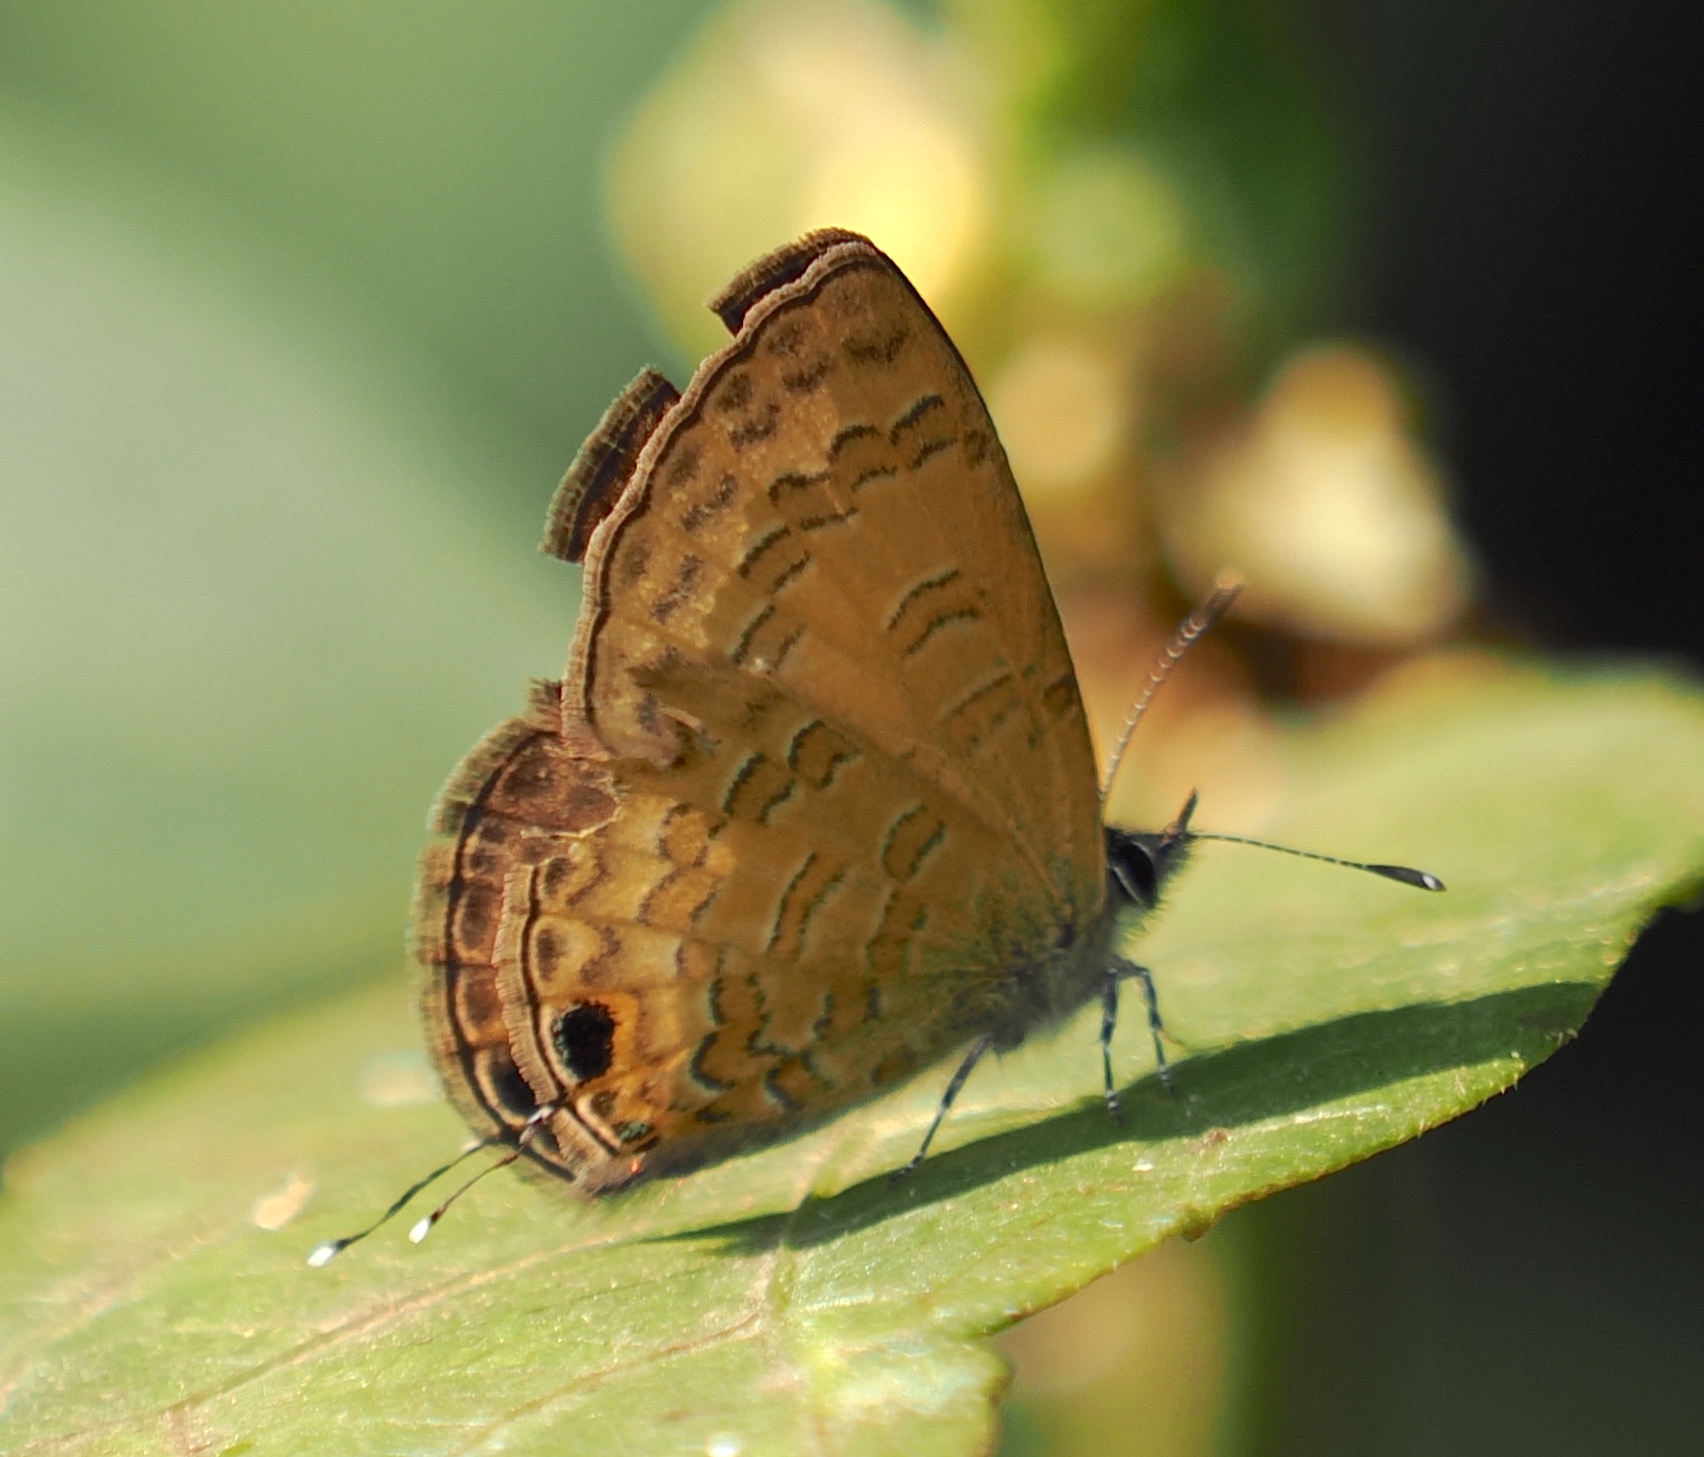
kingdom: Animalia
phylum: Arthropoda
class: Insecta
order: Lepidoptera
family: Lycaenidae
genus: Prosotas
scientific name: Prosotas nora
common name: Common line blue
